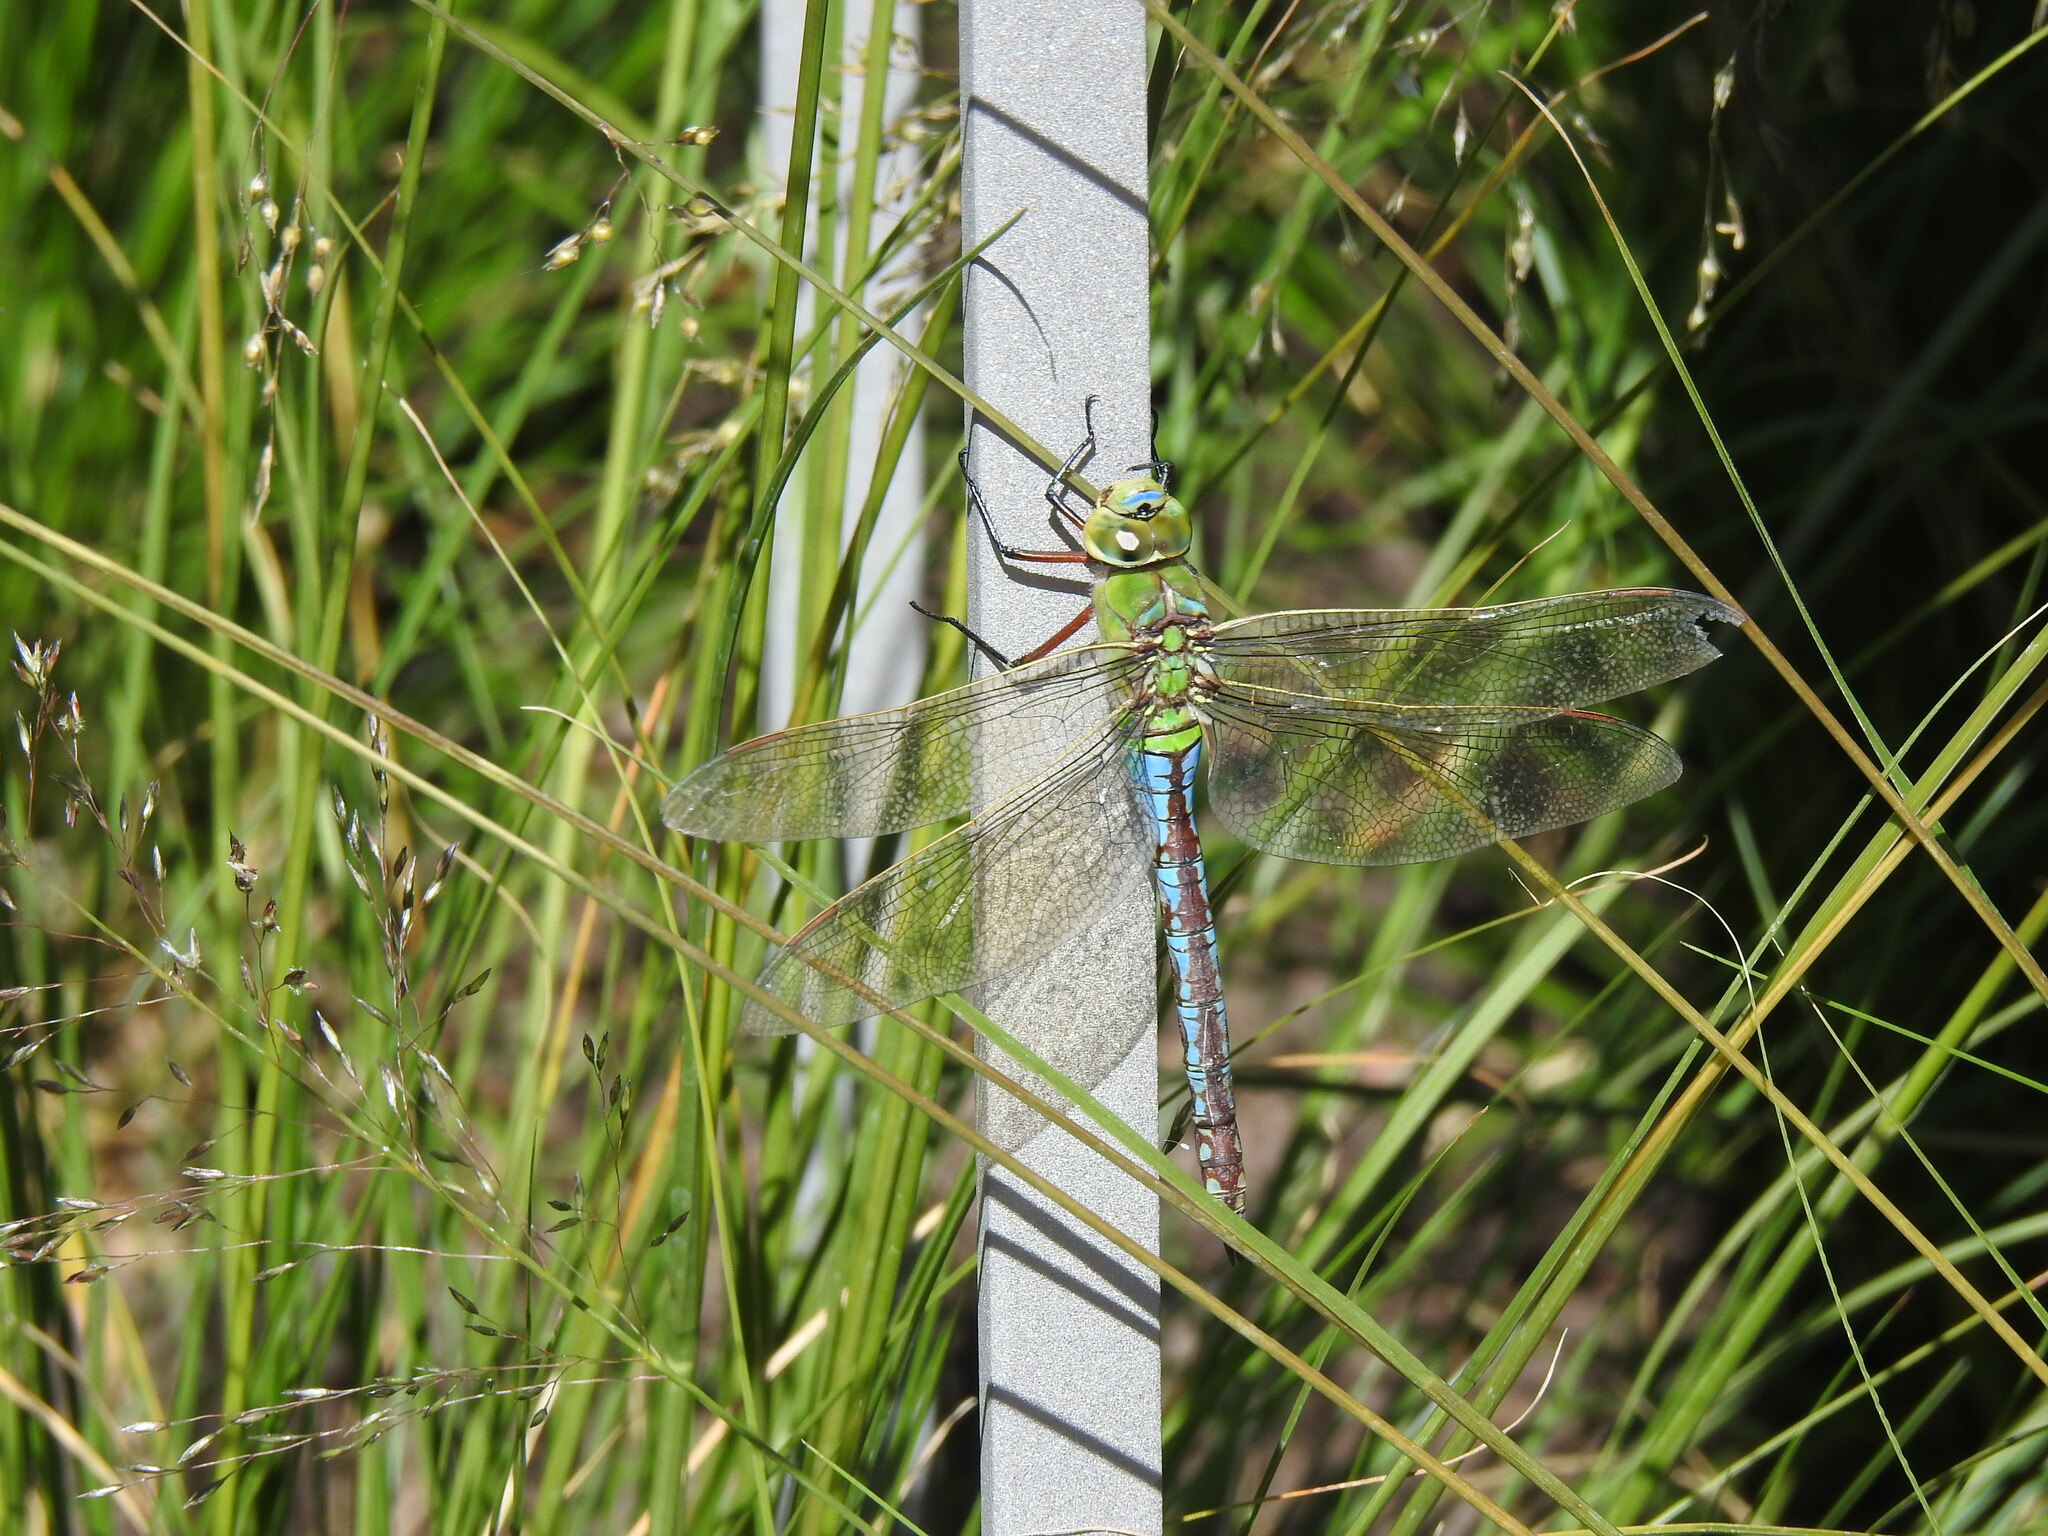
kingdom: Animalia
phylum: Arthropoda
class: Insecta
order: Odonata
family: Aeshnidae
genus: Anax
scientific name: Anax imperator
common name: Emperor dragonfly
